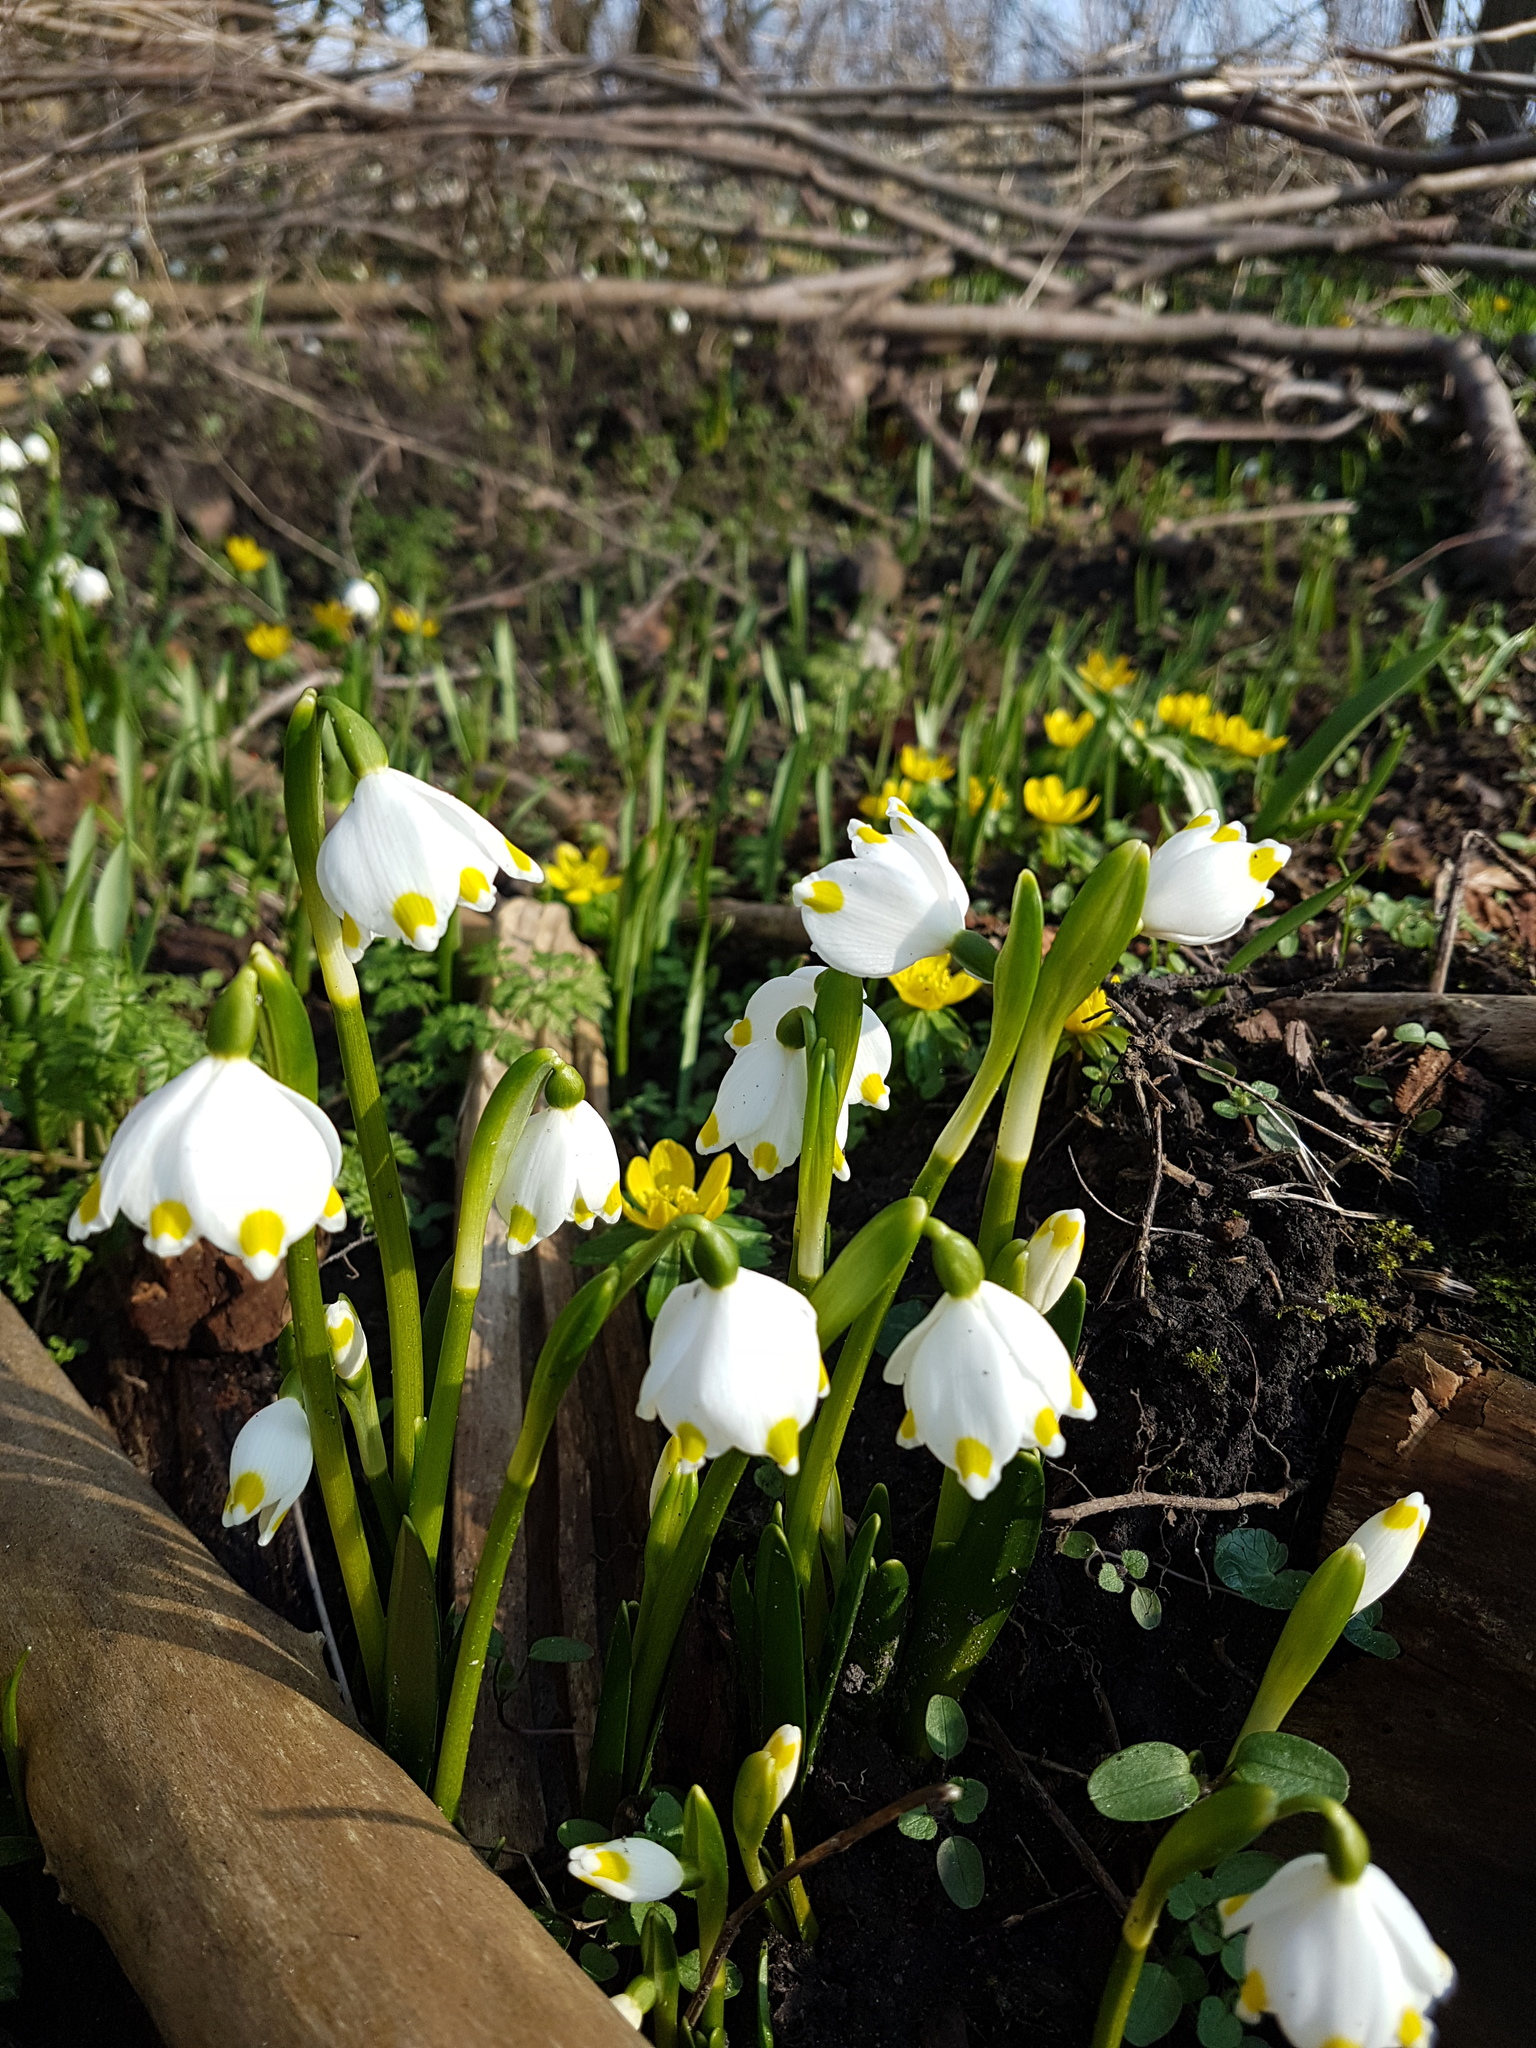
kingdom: Plantae
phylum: Tracheophyta
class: Liliopsida
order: Asparagales
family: Amaryllidaceae
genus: Leucojum
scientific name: Leucojum vernum
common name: Spring snowflake
